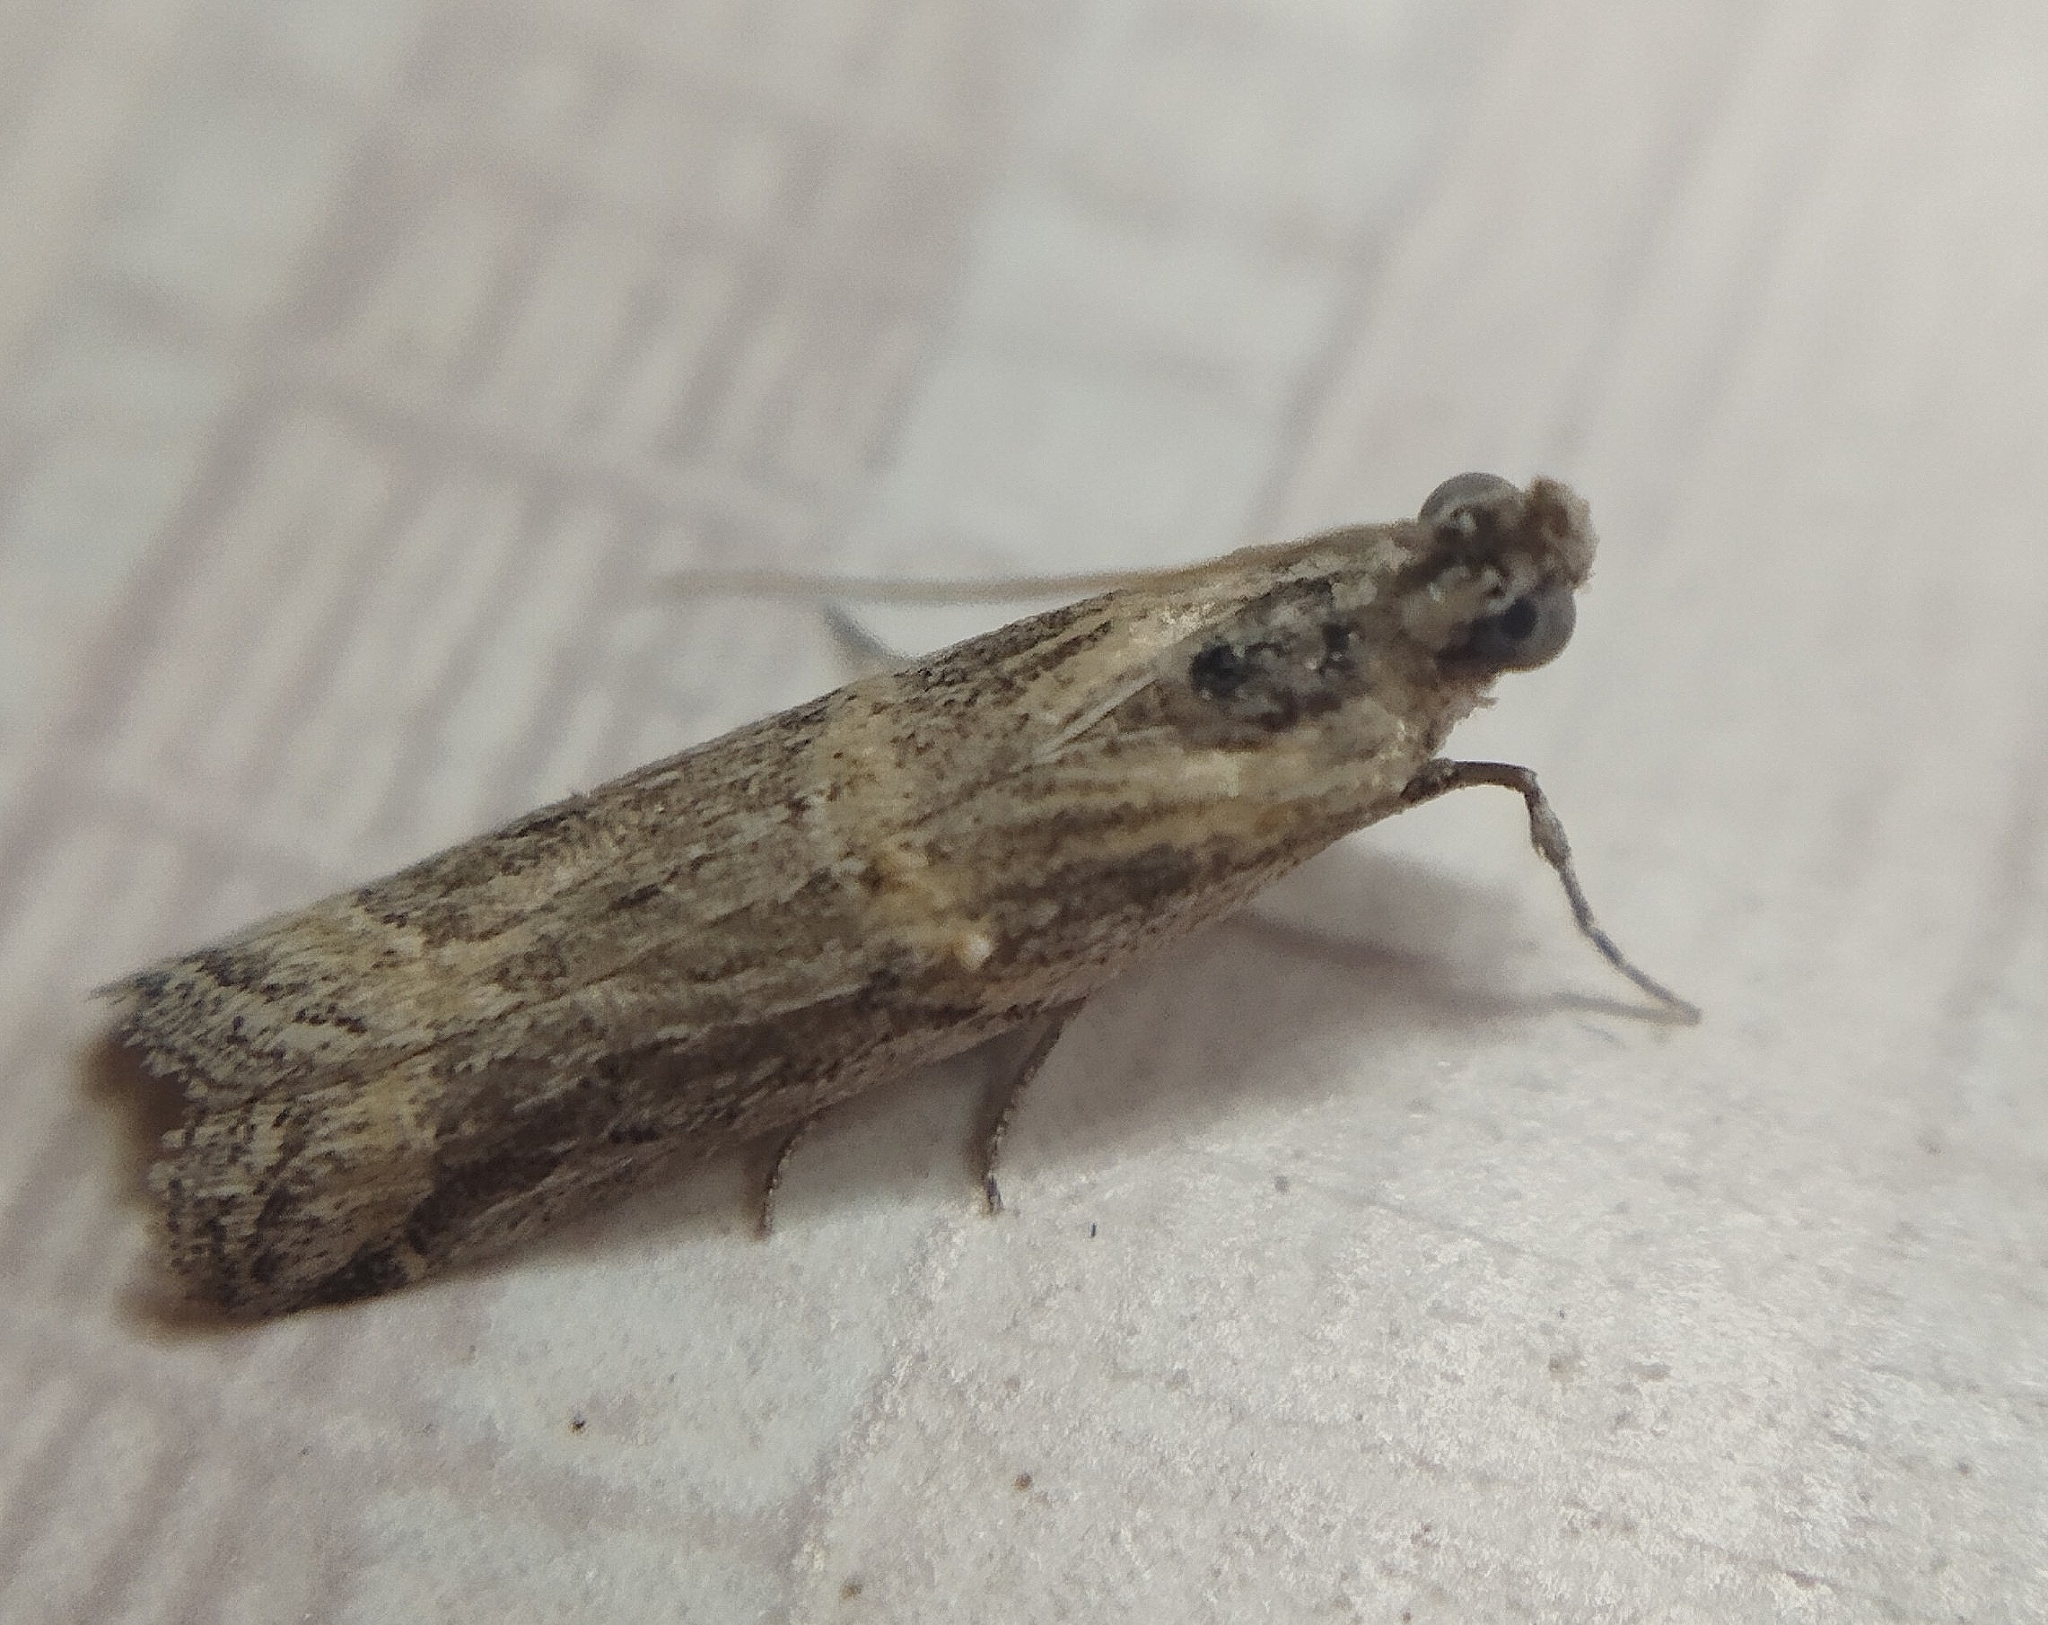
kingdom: Animalia
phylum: Arthropoda
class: Insecta
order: Lepidoptera
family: Pyralidae
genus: Psorosa
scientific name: Psorosa dahliella
